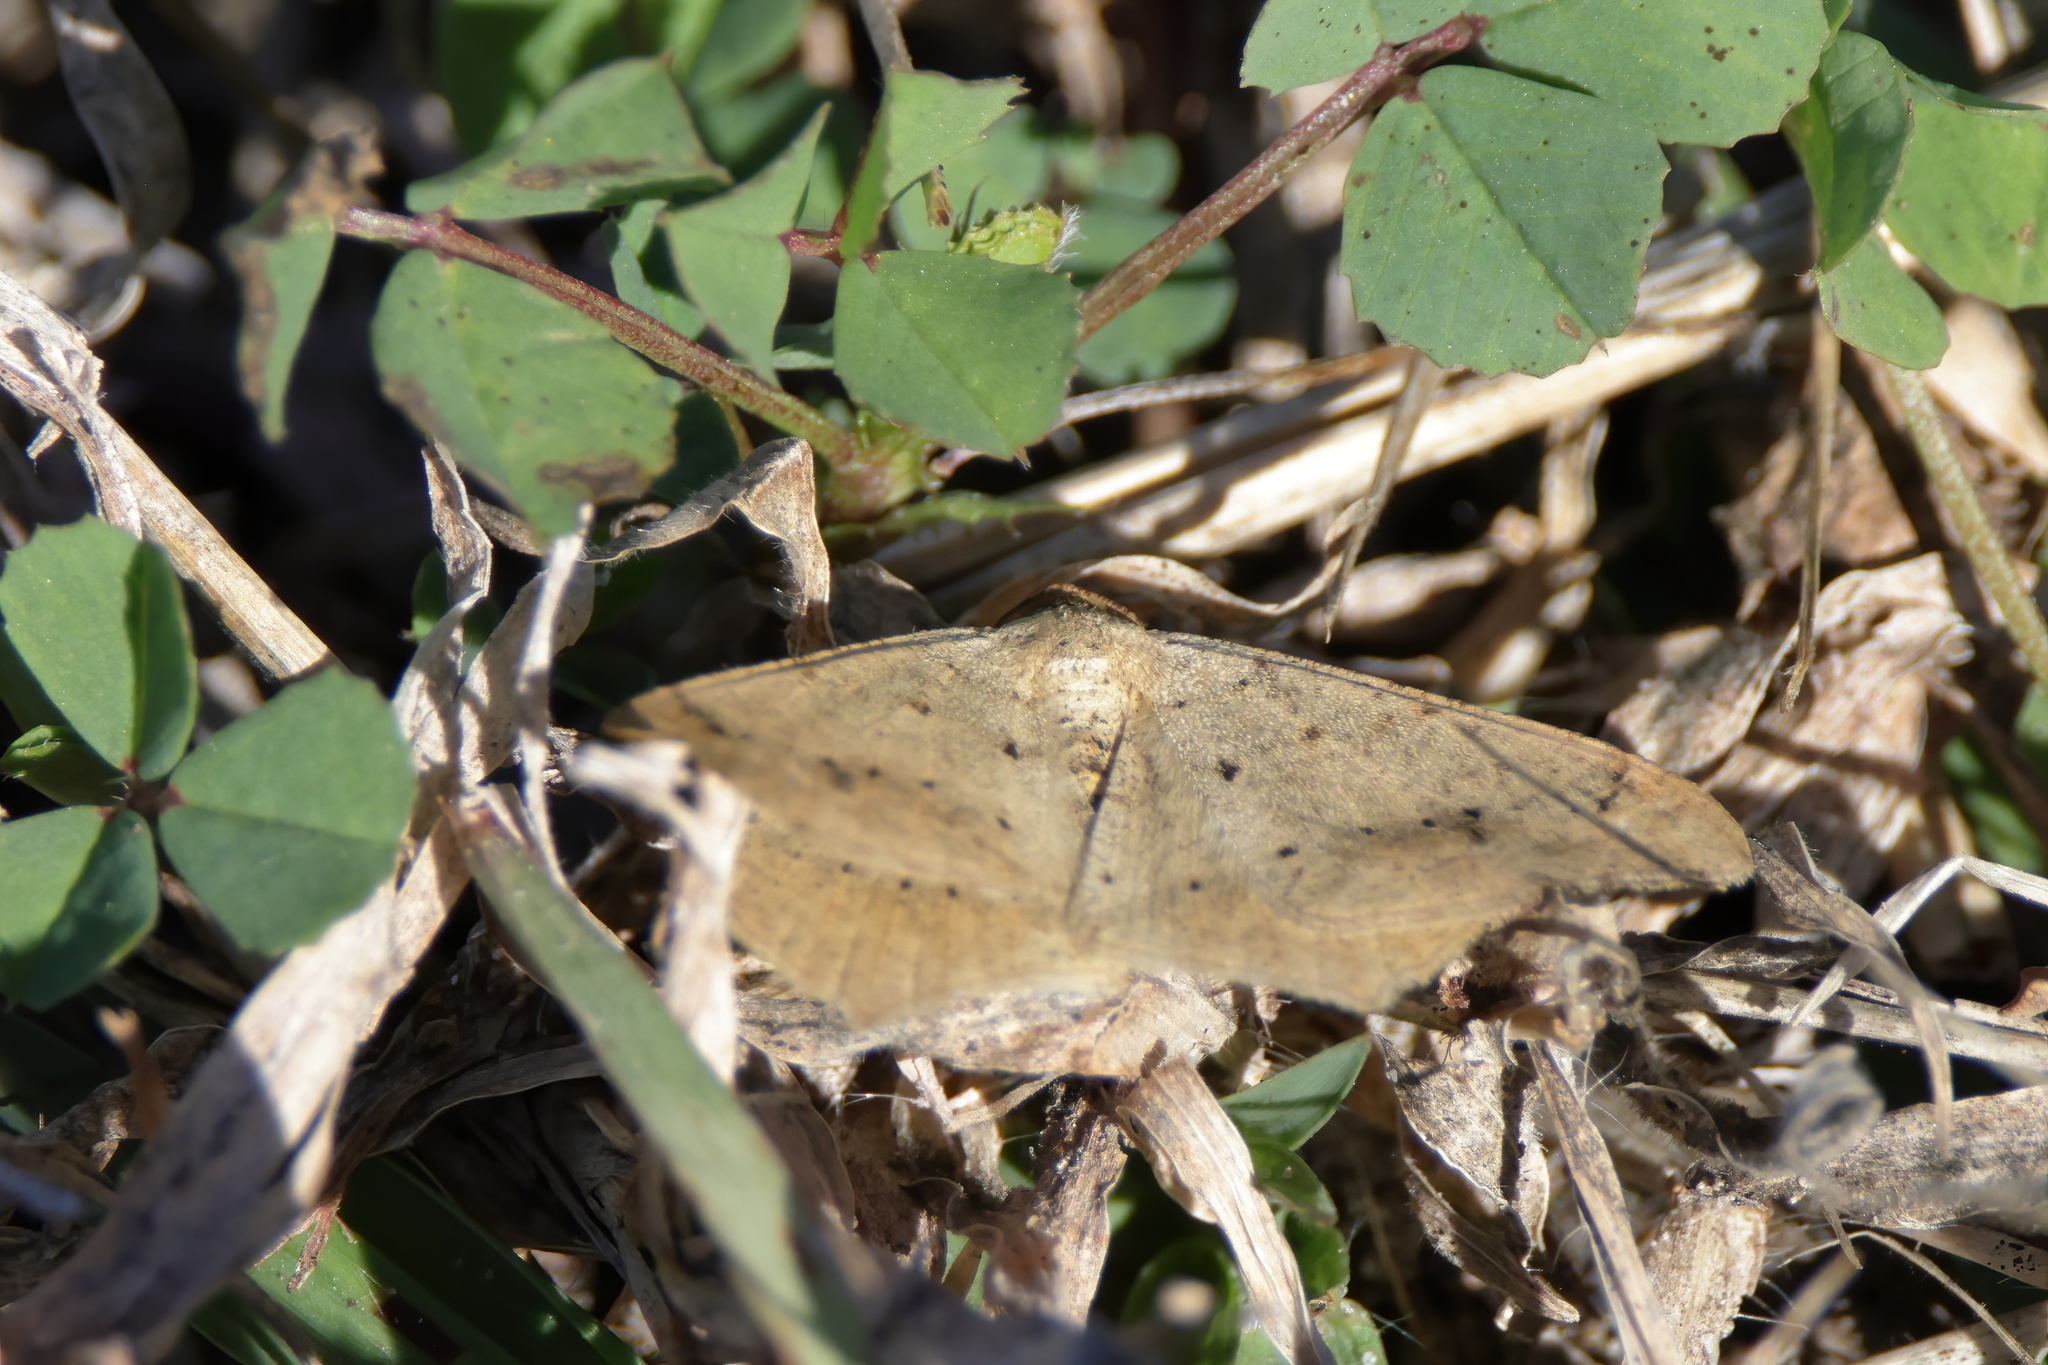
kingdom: Animalia
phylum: Arthropoda
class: Insecta
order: Lepidoptera
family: Geometridae
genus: Macaria
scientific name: Macaria abydata
